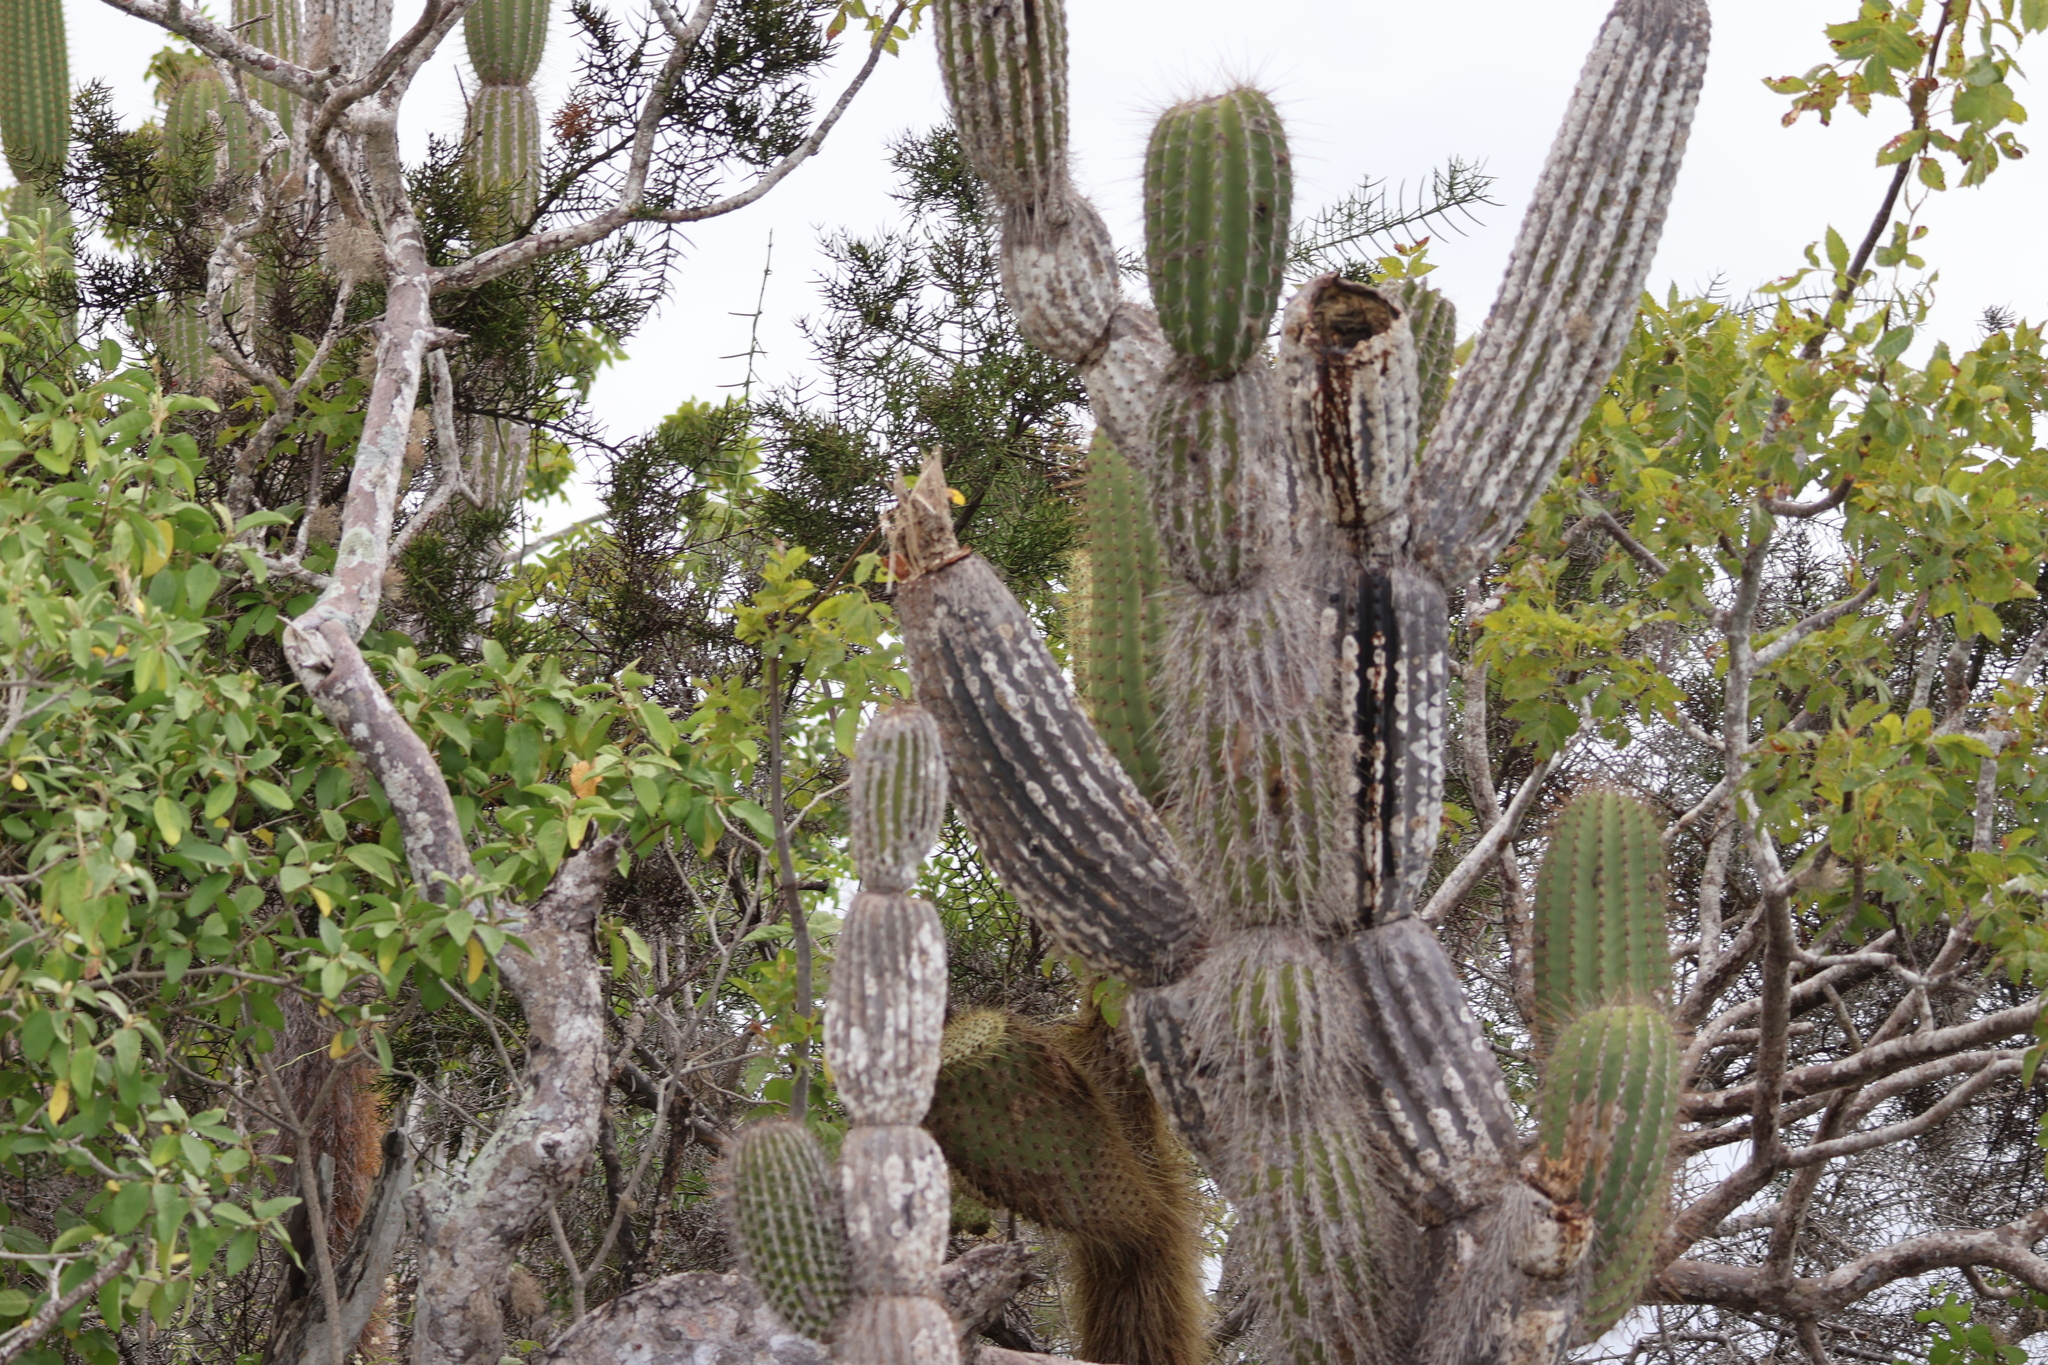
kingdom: Plantae
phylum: Tracheophyta
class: Magnoliopsida
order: Caryophyllales
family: Cactaceae
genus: Jasminocereus
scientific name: Jasminocereus thouarsii
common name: Candelabra cactus
